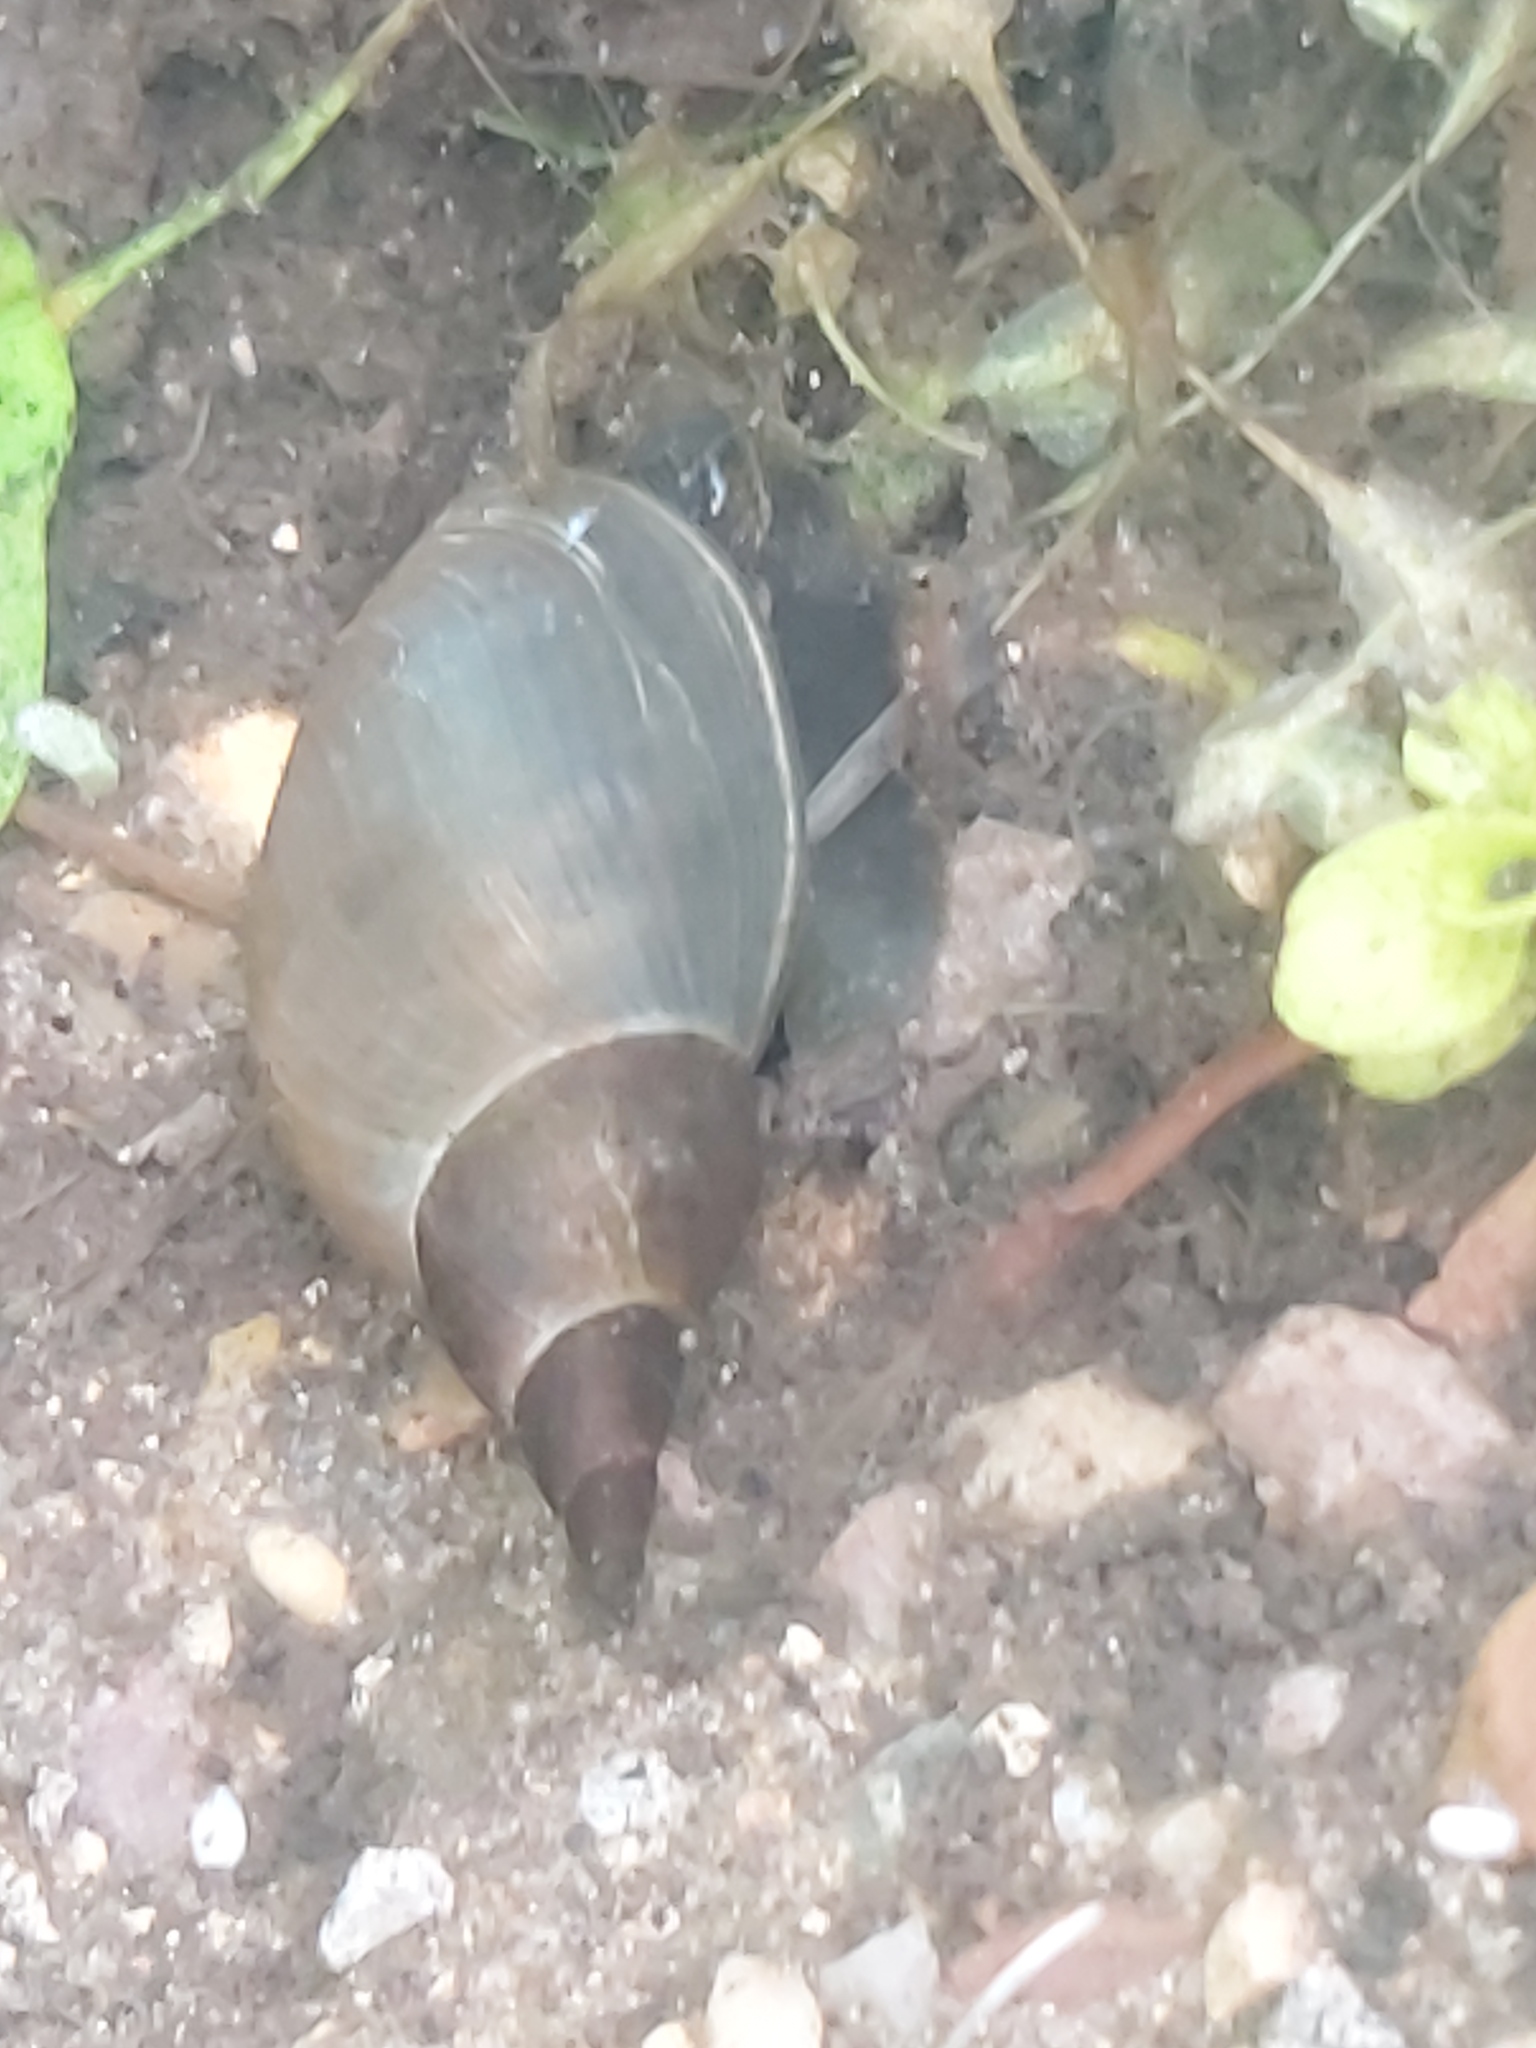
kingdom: Animalia
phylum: Mollusca
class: Gastropoda
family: Lymnaeidae
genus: Lymnaea
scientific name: Lymnaea stagnalis
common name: Great pond snail
